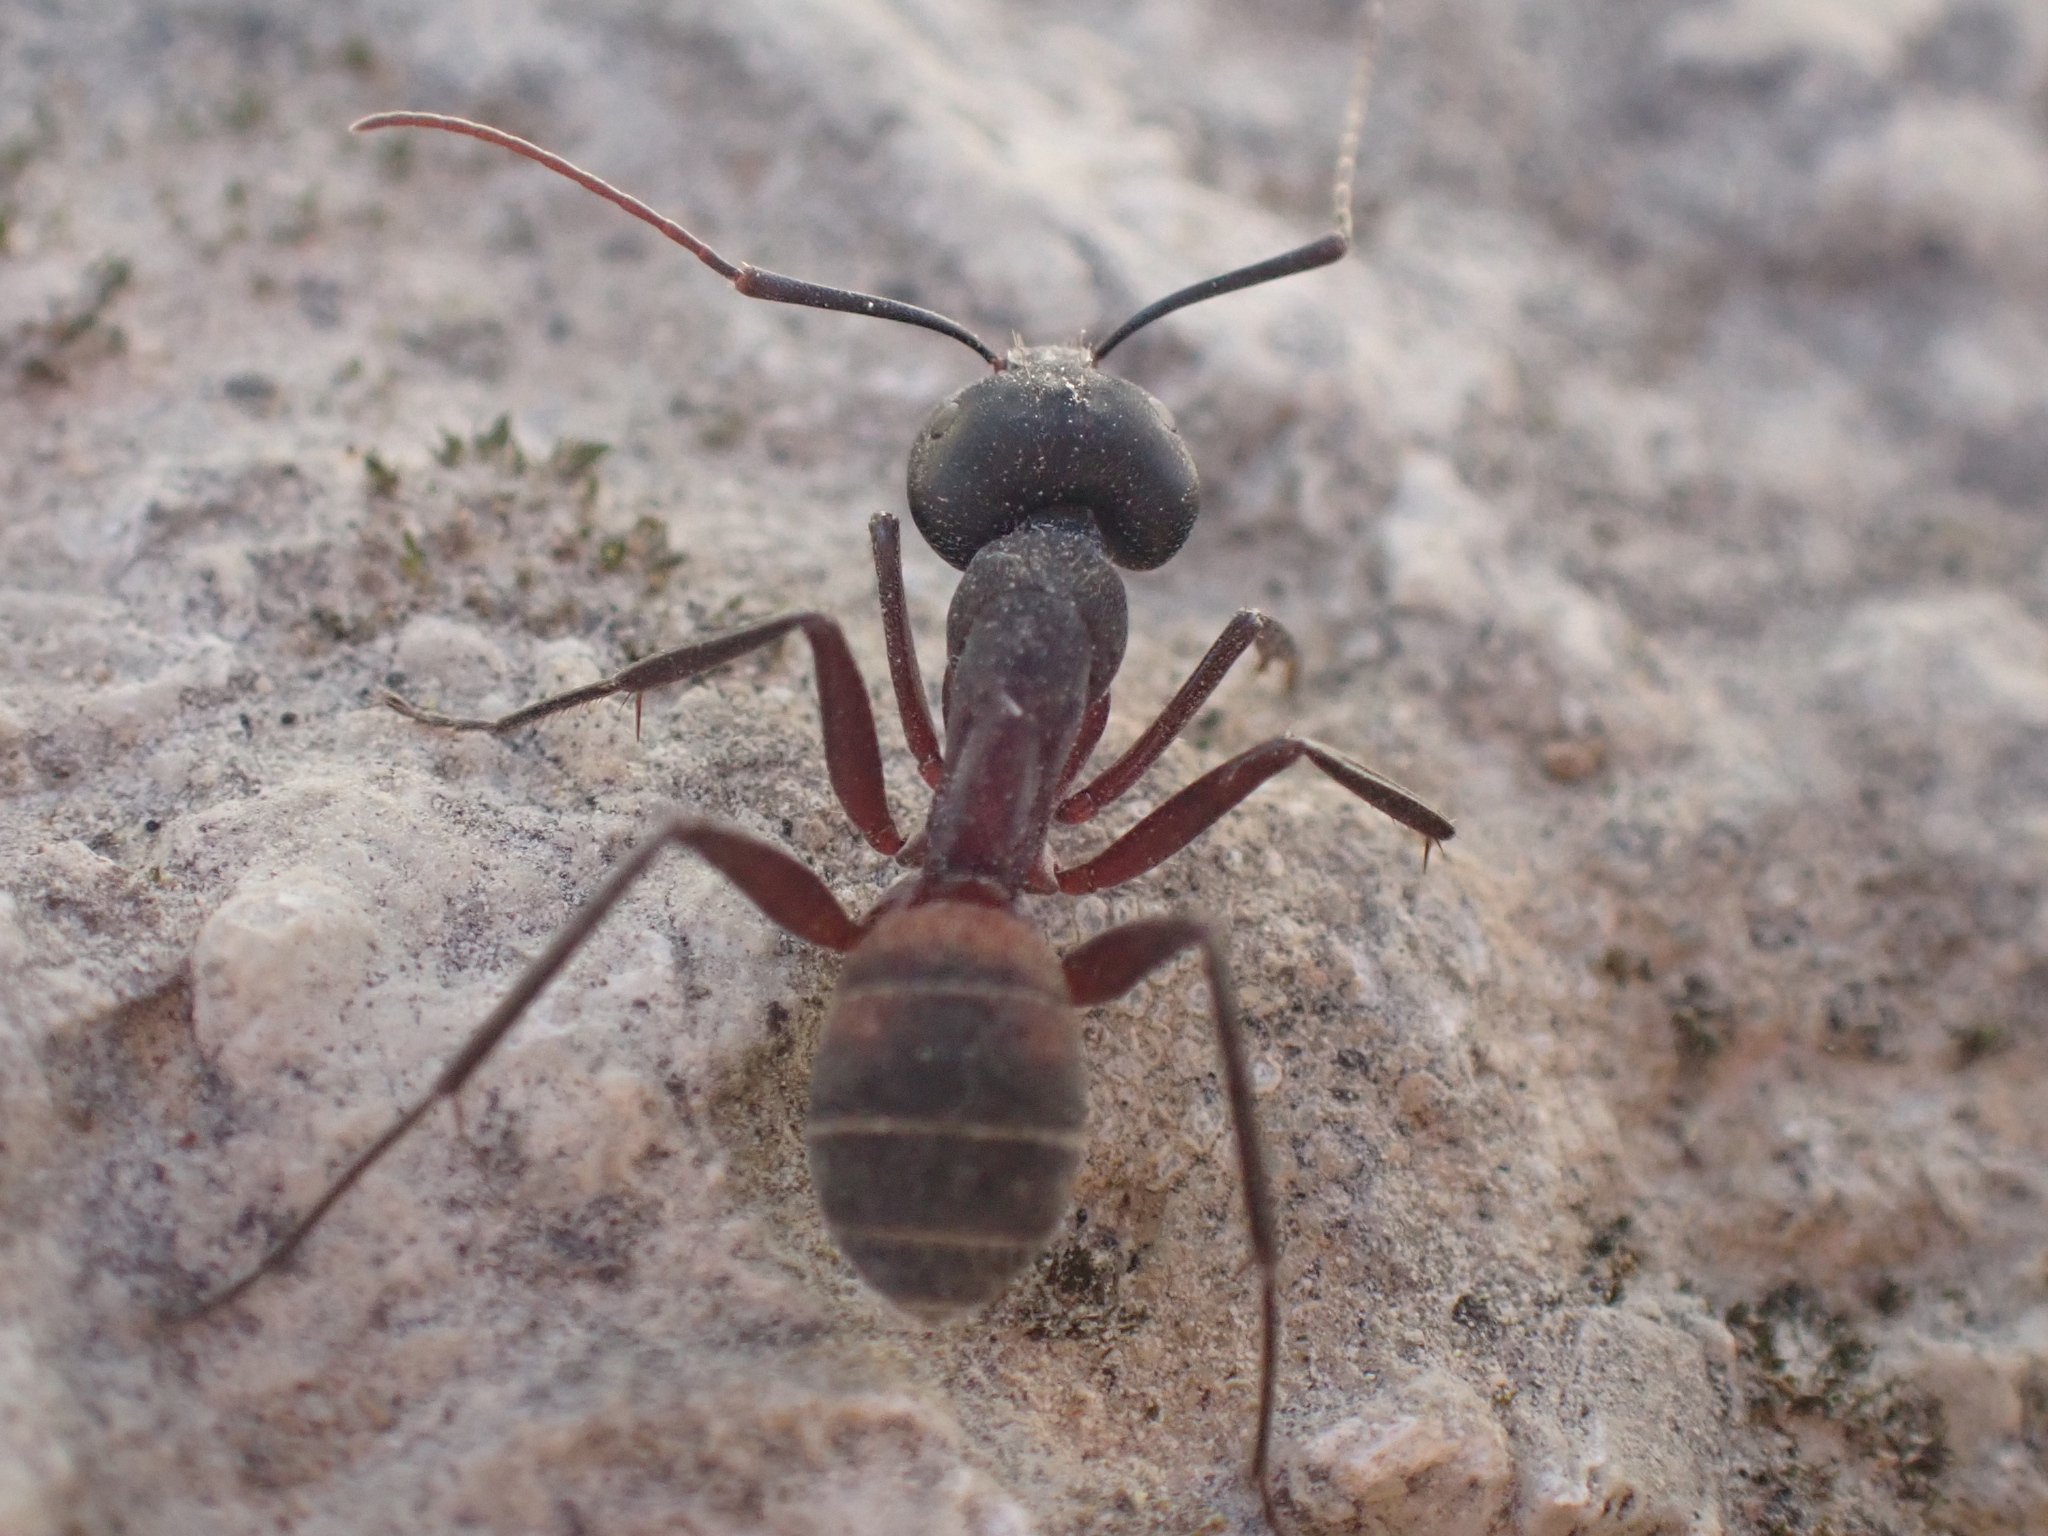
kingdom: Animalia
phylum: Arthropoda
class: Insecta
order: Hymenoptera
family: Formicidae
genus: Camponotus
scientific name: Camponotus cruentatus
